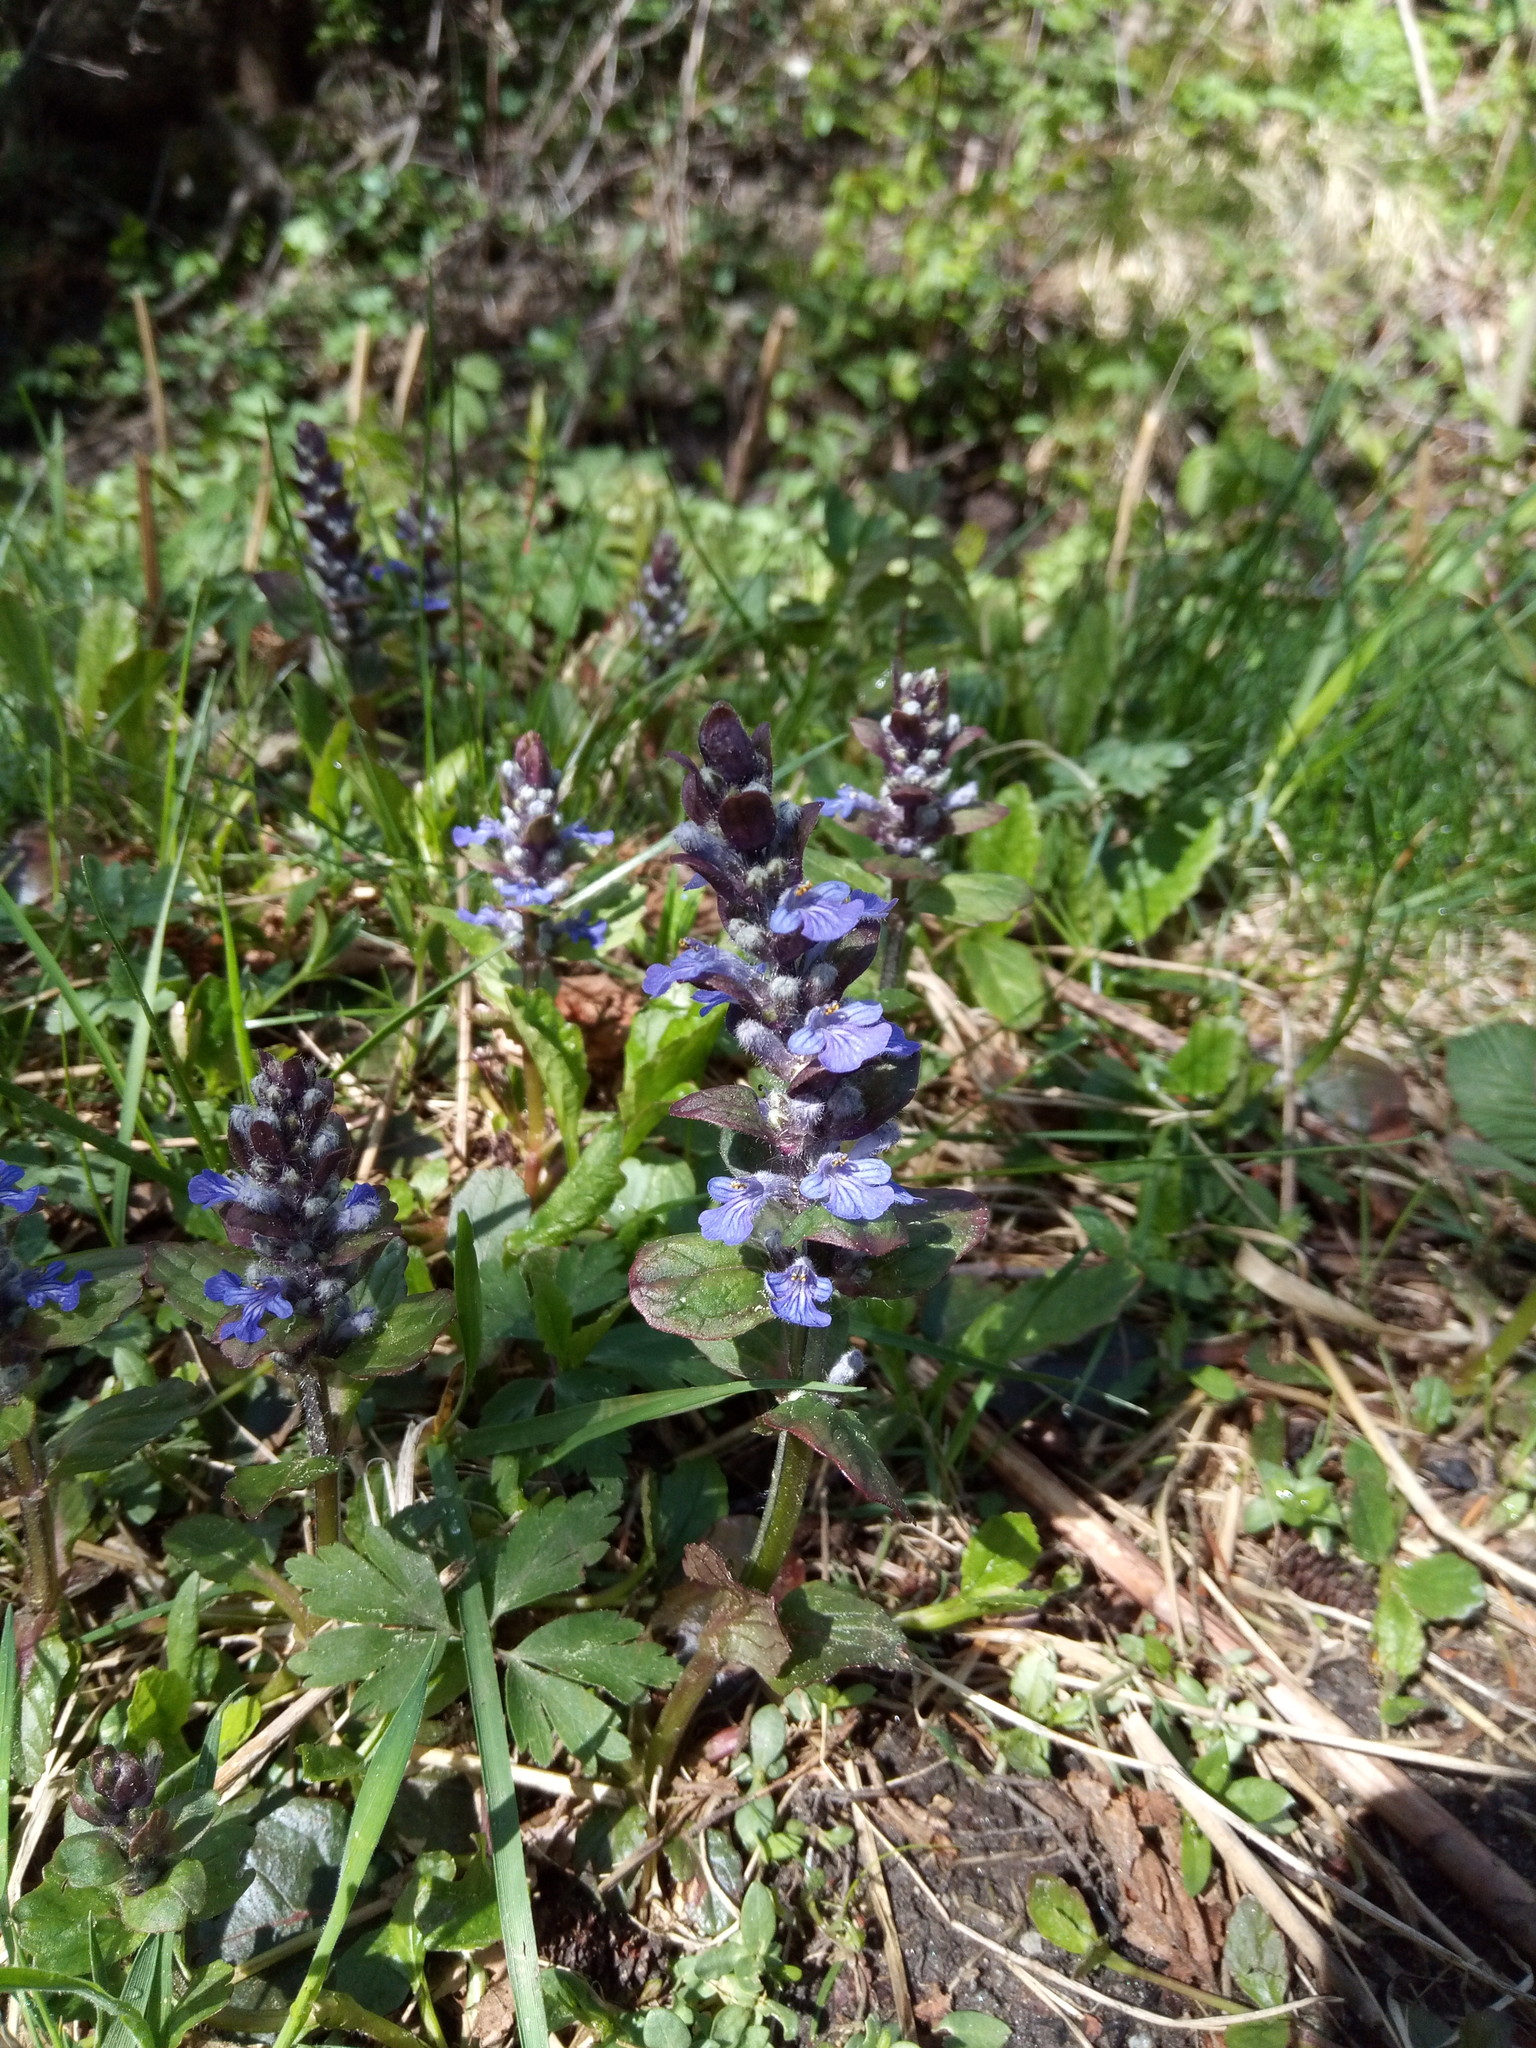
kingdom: Plantae
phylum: Tracheophyta
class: Magnoliopsida
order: Lamiales
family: Lamiaceae
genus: Ajuga
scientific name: Ajuga reptans
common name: Bugle
